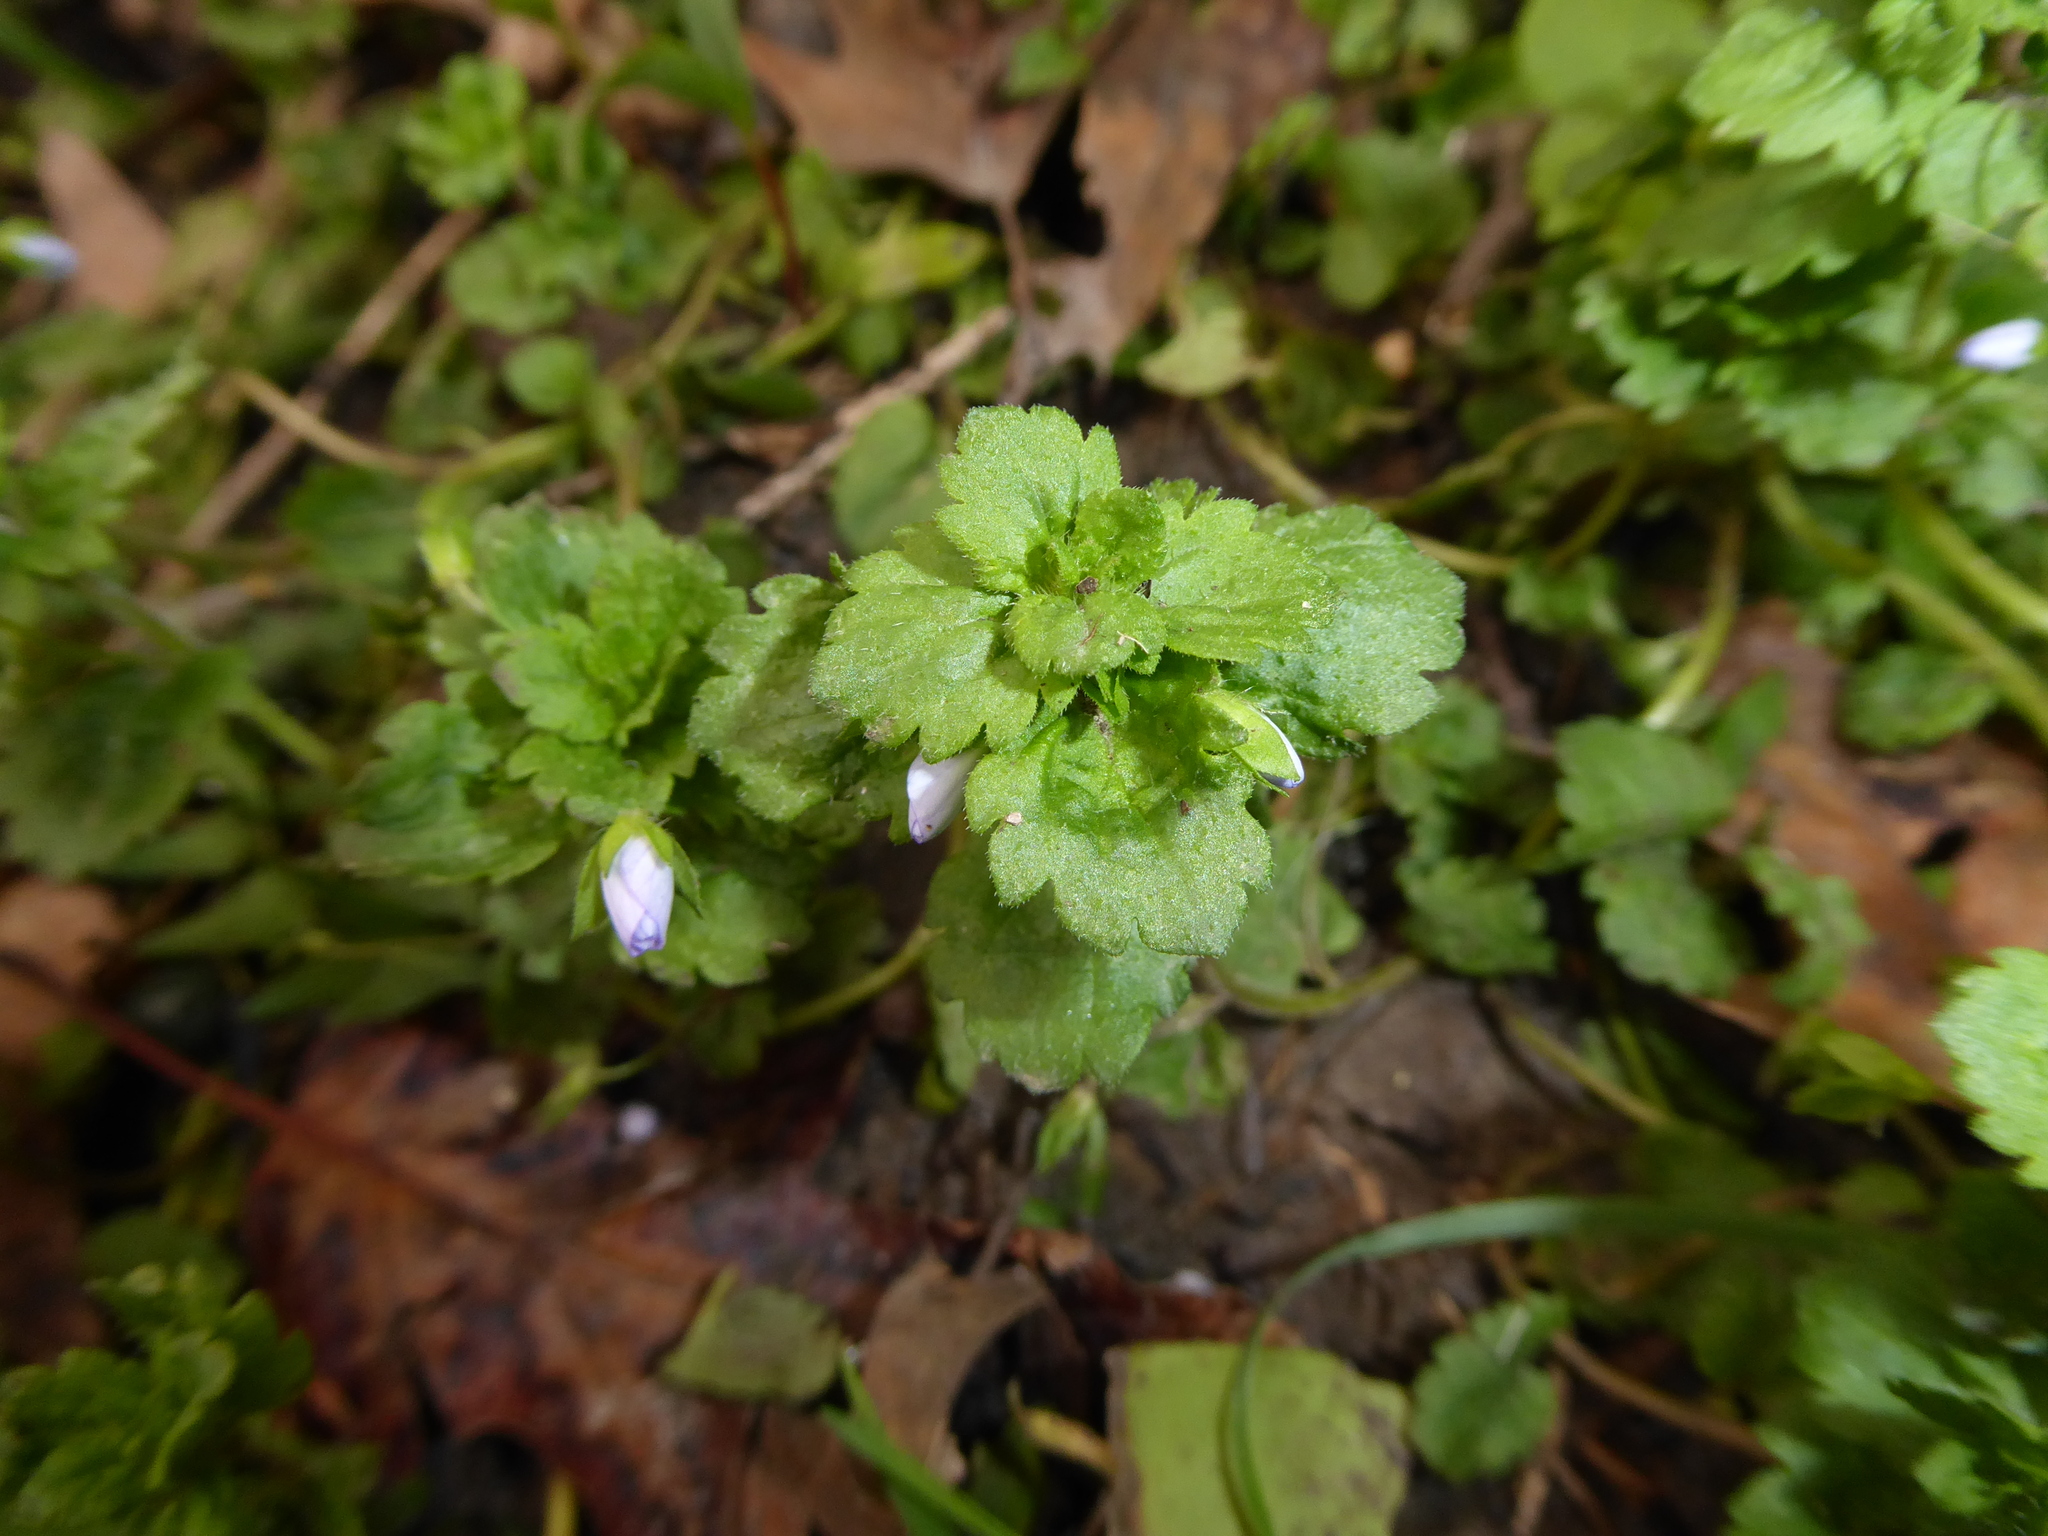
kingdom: Plantae
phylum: Tracheophyta
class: Magnoliopsida
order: Lamiales
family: Plantaginaceae
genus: Veronica
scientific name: Veronica persica
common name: Common field-speedwell
